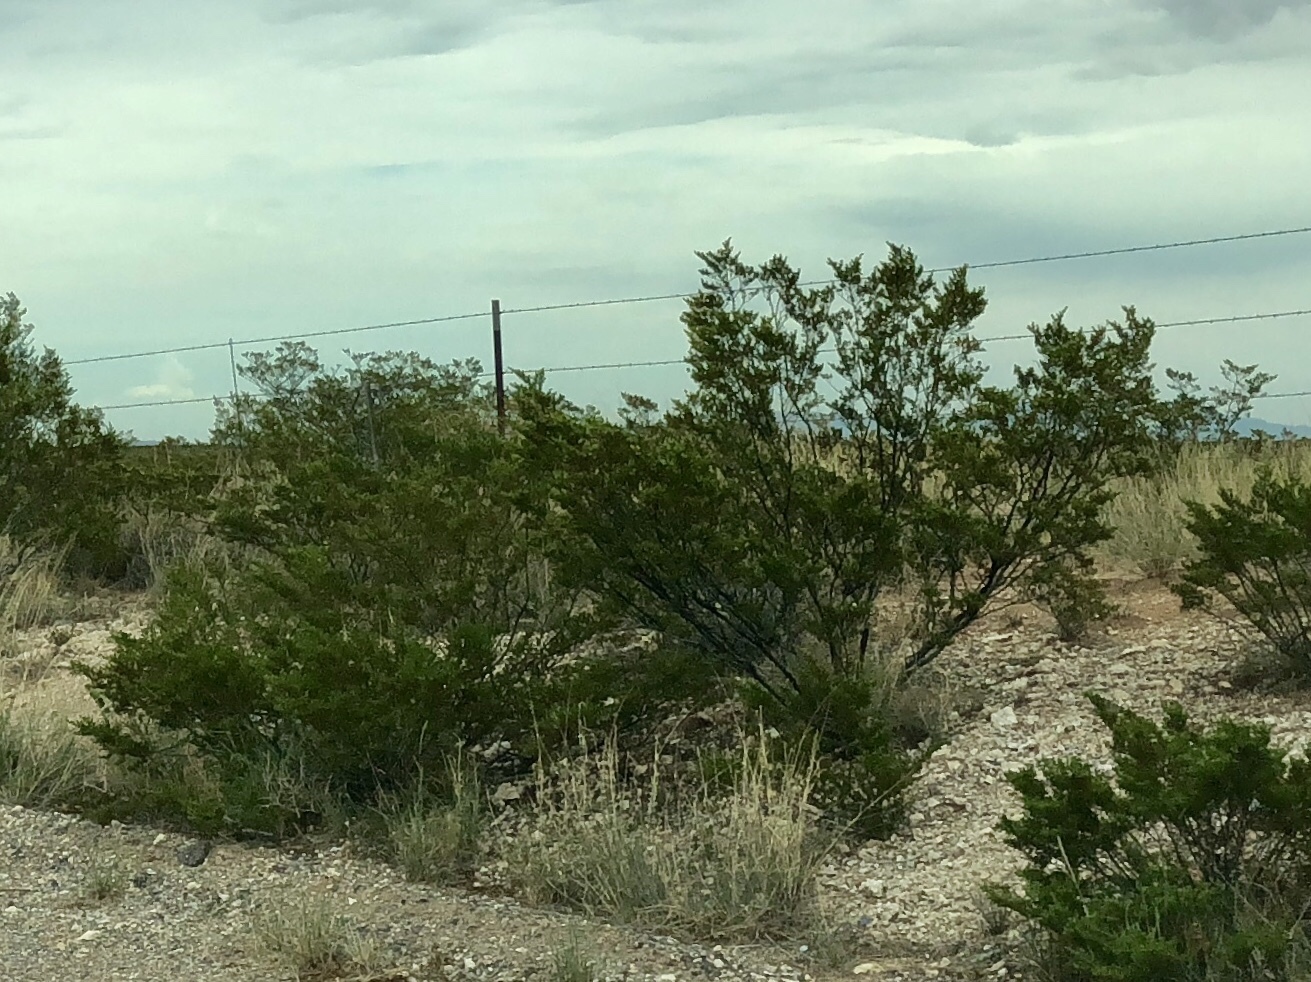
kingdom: Plantae
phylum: Tracheophyta
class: Magnoliopsida
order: Zygophyllales
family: Zygophyllaceae
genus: Larrea
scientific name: Larrea tridentata
